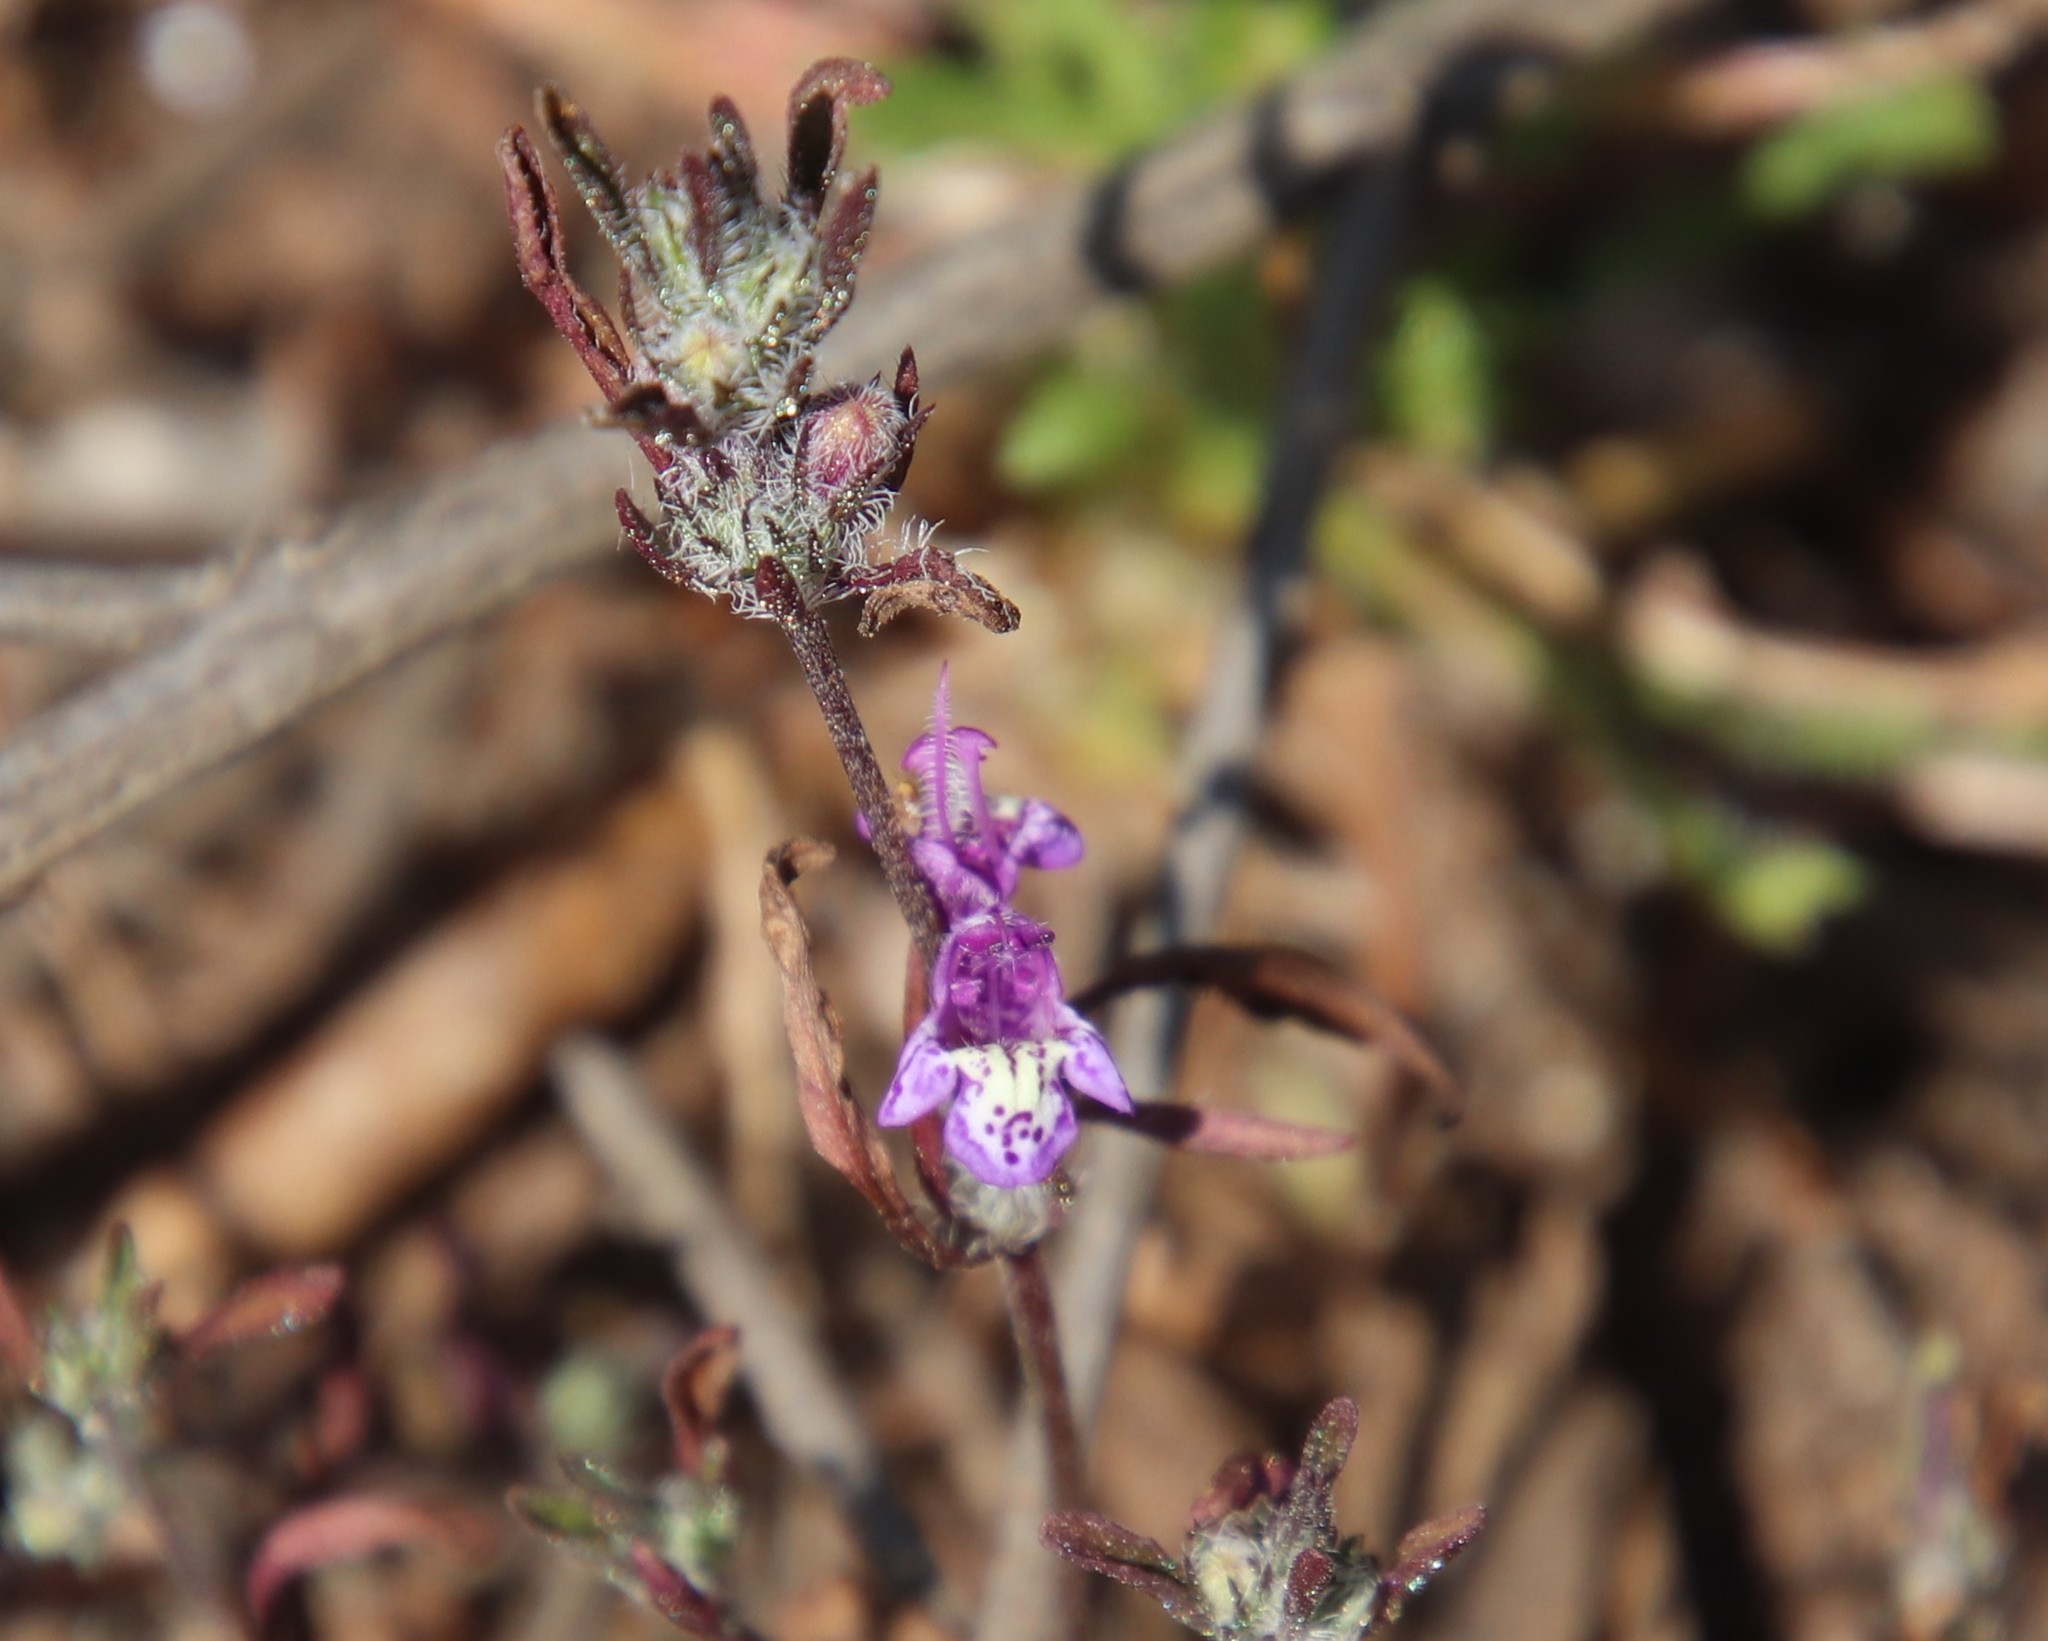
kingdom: Plantae
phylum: Tracheophyta
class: Magnoliopsida
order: Lamiales
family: Lamiaceae
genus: Pogogyne
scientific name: Pogogyne abramsii
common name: San diego mesa-mint
